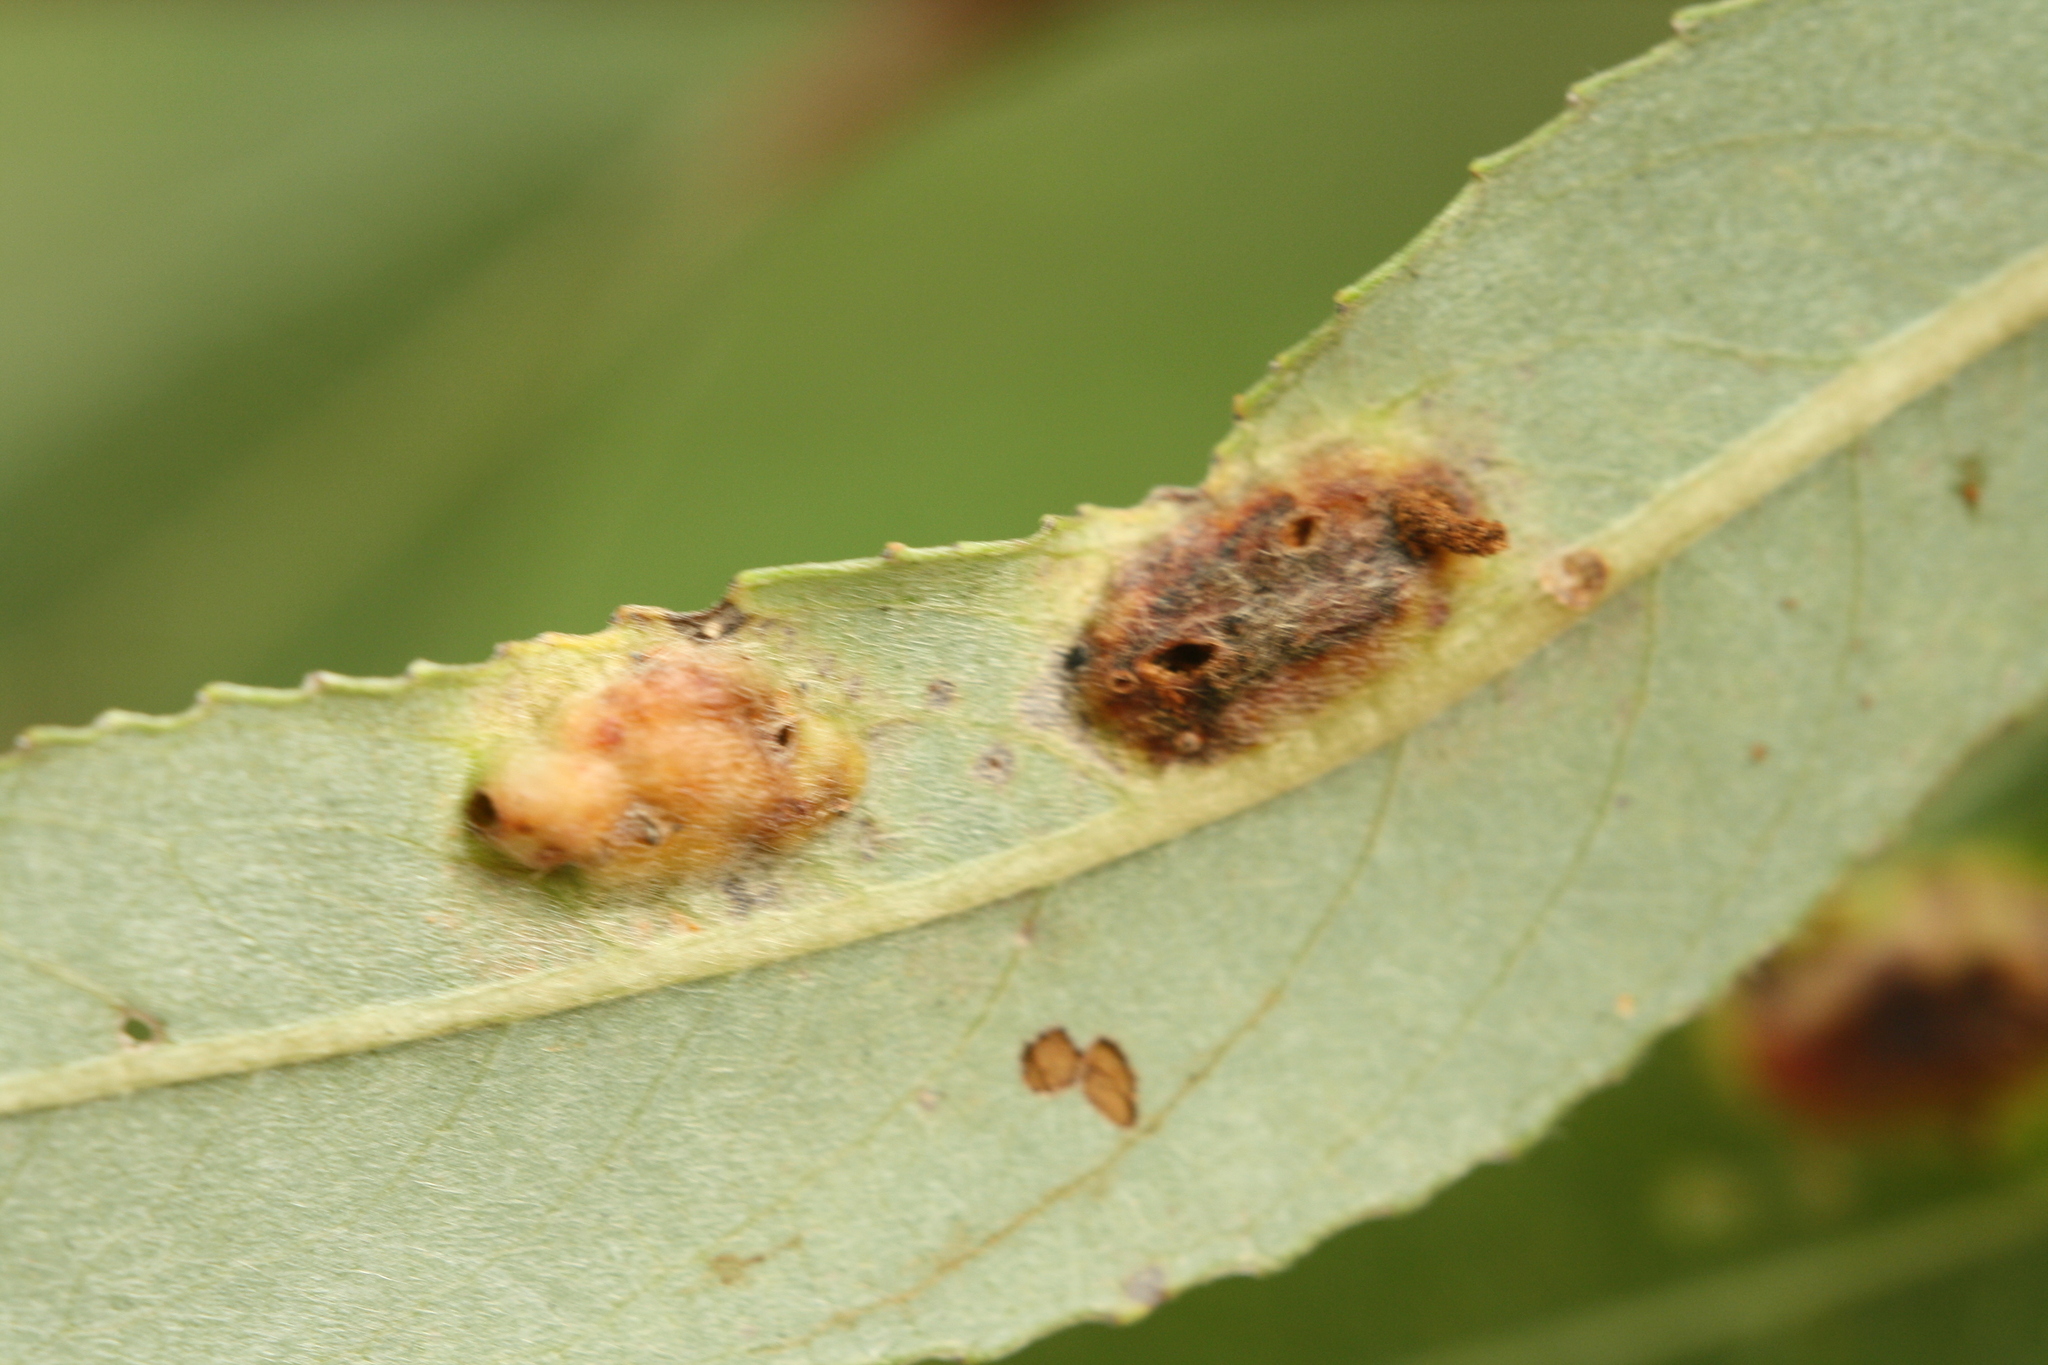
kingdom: Animalia
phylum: Arthropoda
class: Insecta
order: Hymenoptera
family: Tenthredinidae
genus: Pontania
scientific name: Pontania proxima
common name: Common sawfly
